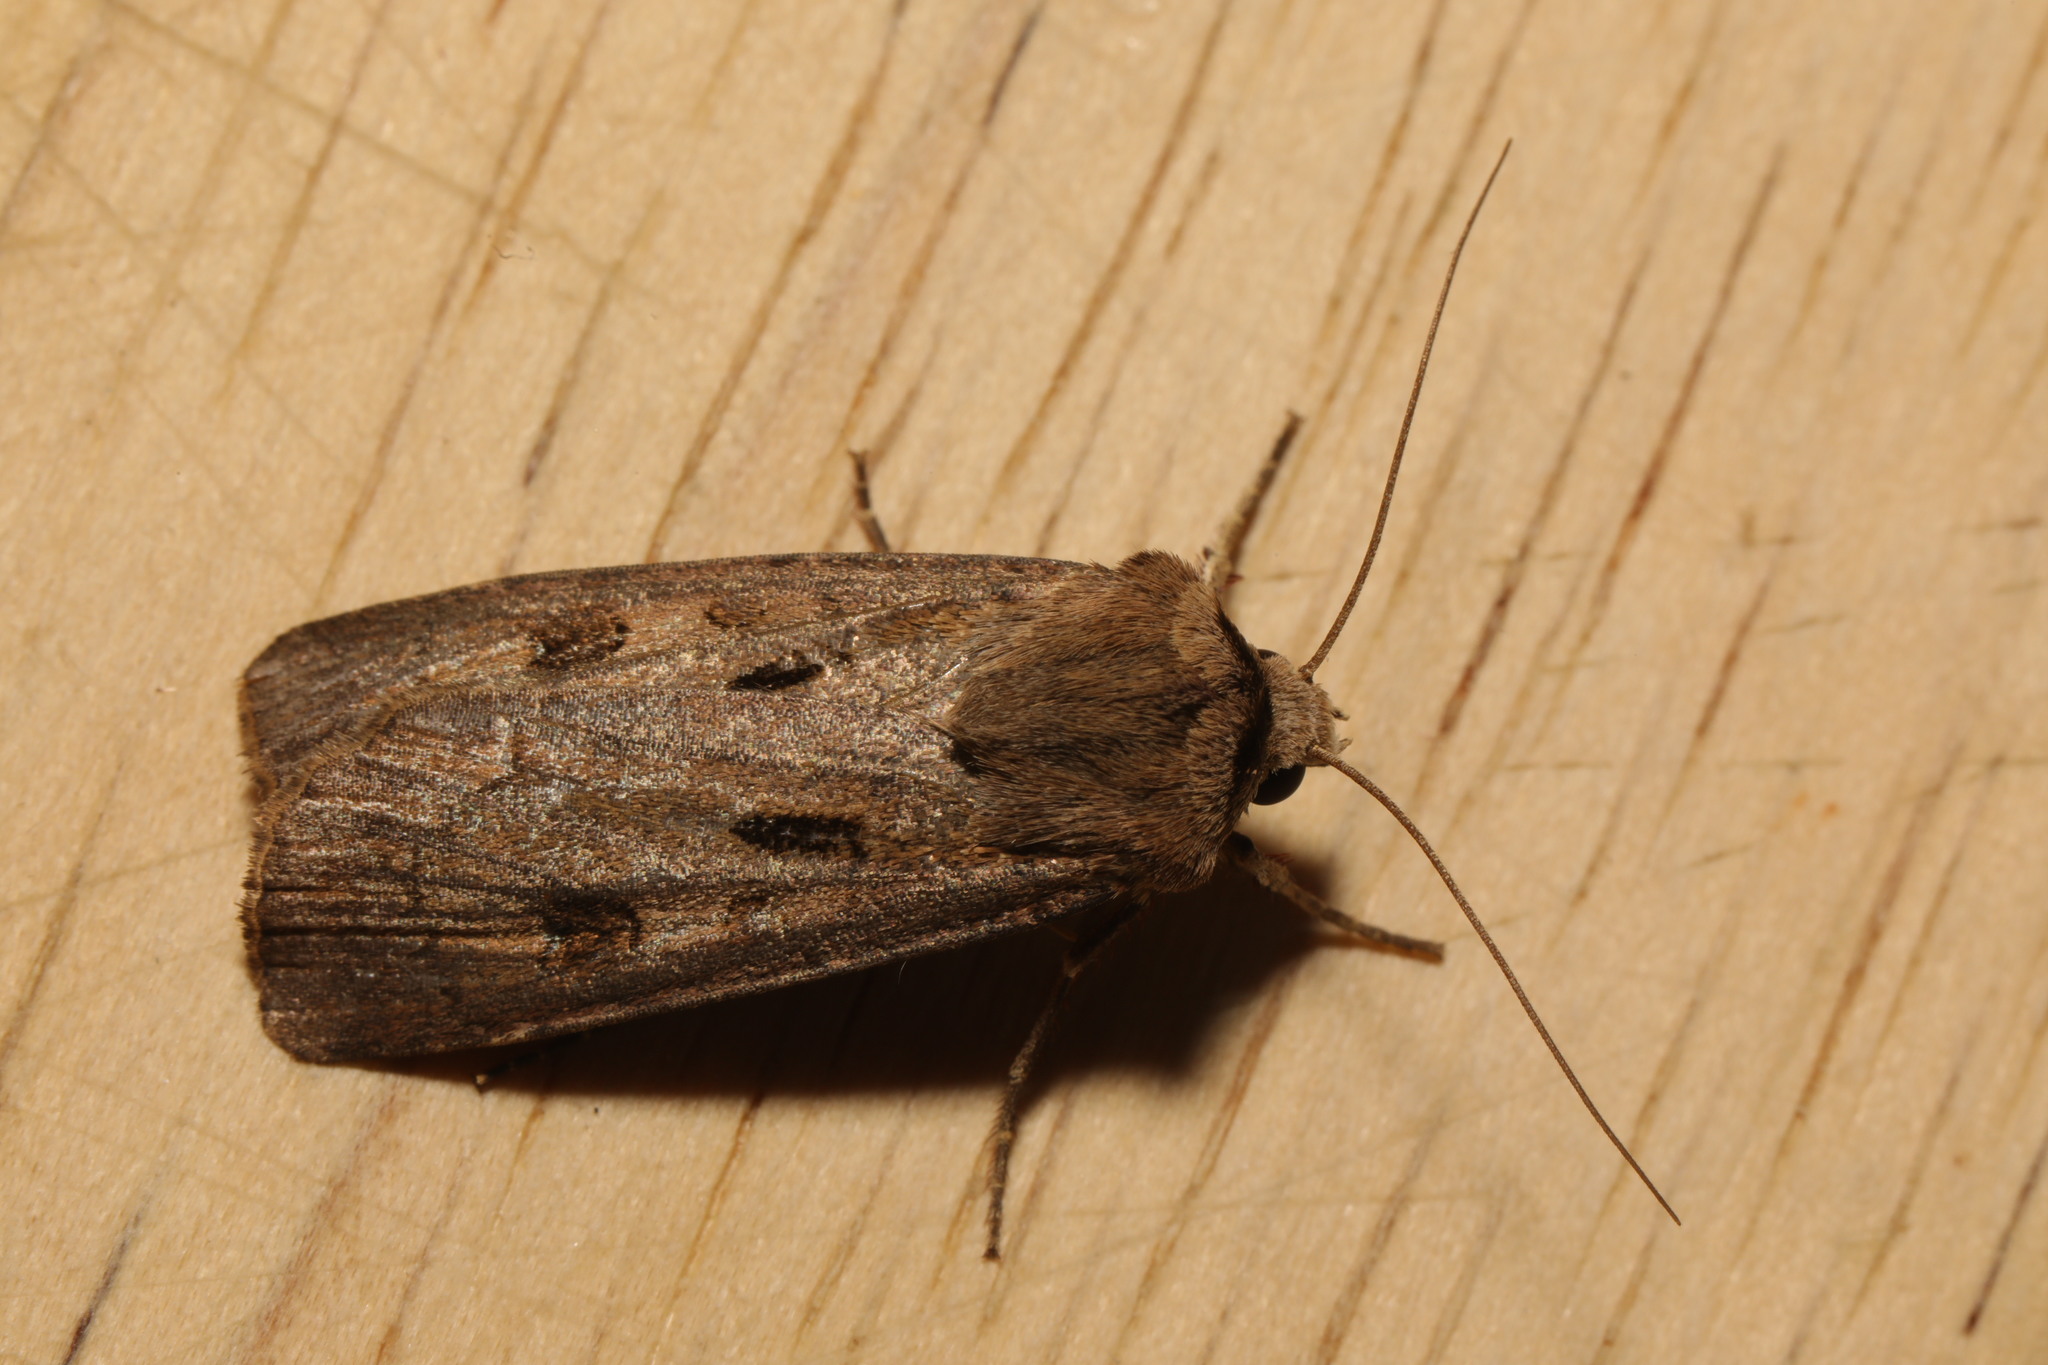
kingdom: Animalia
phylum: Arthropoda
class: Insecta
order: Lepidoptera
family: Noctuidae
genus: Agrotis
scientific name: Agrotis exclamationis
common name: Heart and dart
